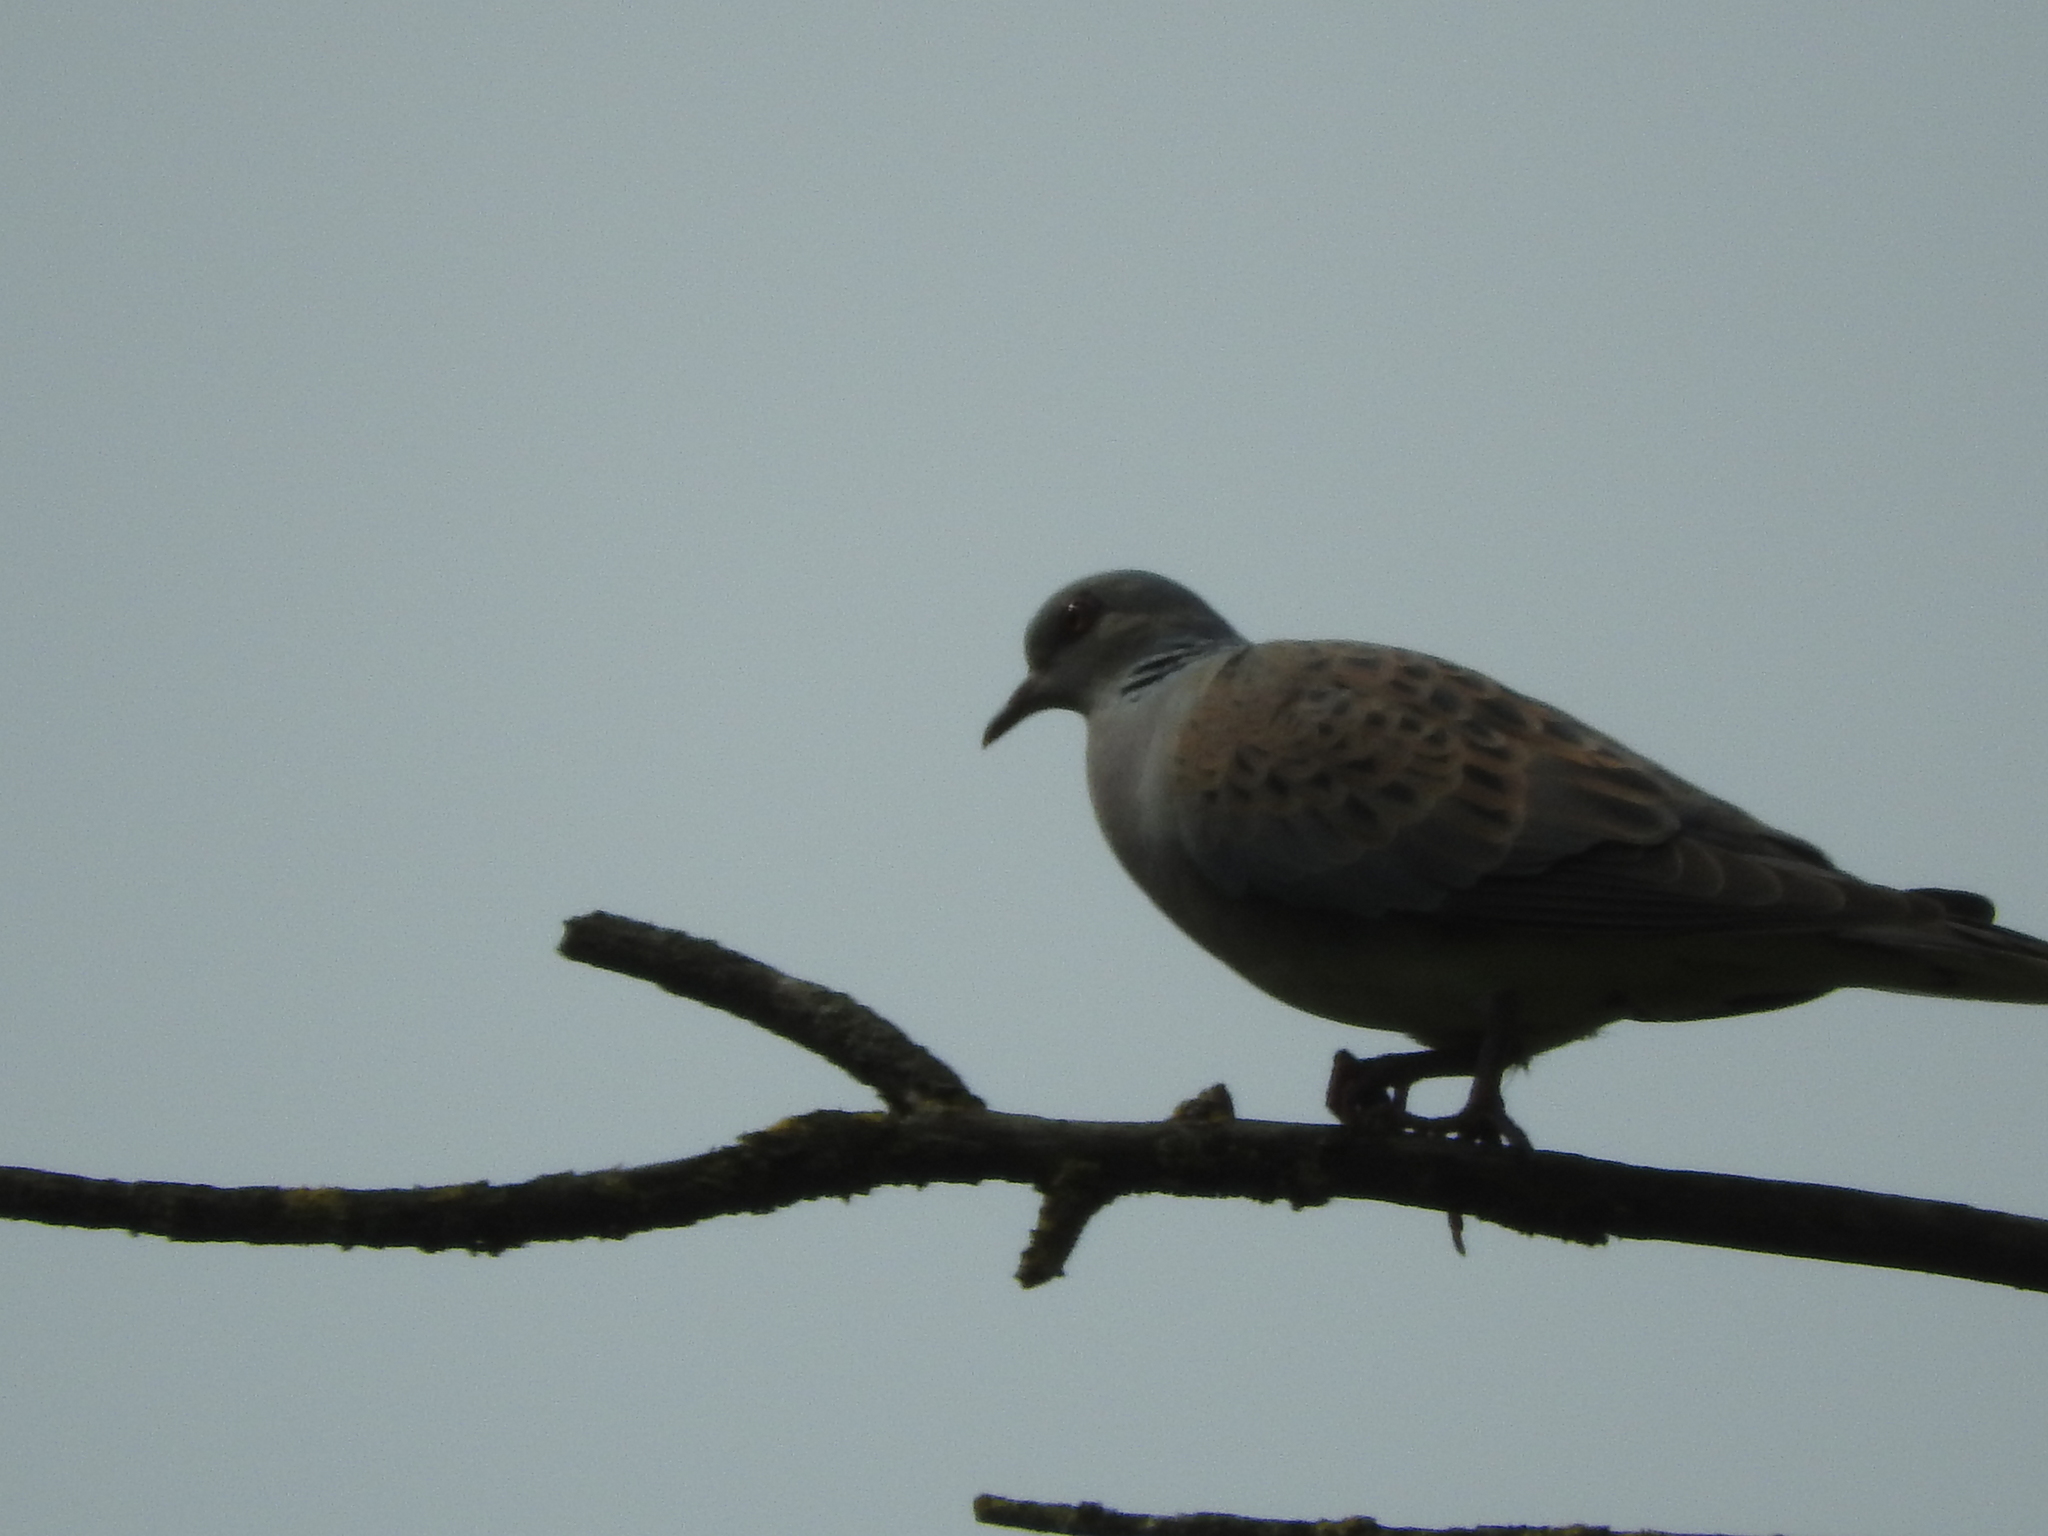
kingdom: Animalia
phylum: Chordata
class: Aves
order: Columbiformes
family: Columbidae
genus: Streptopelia
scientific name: Streptopelia turtur
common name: European turtle dove
